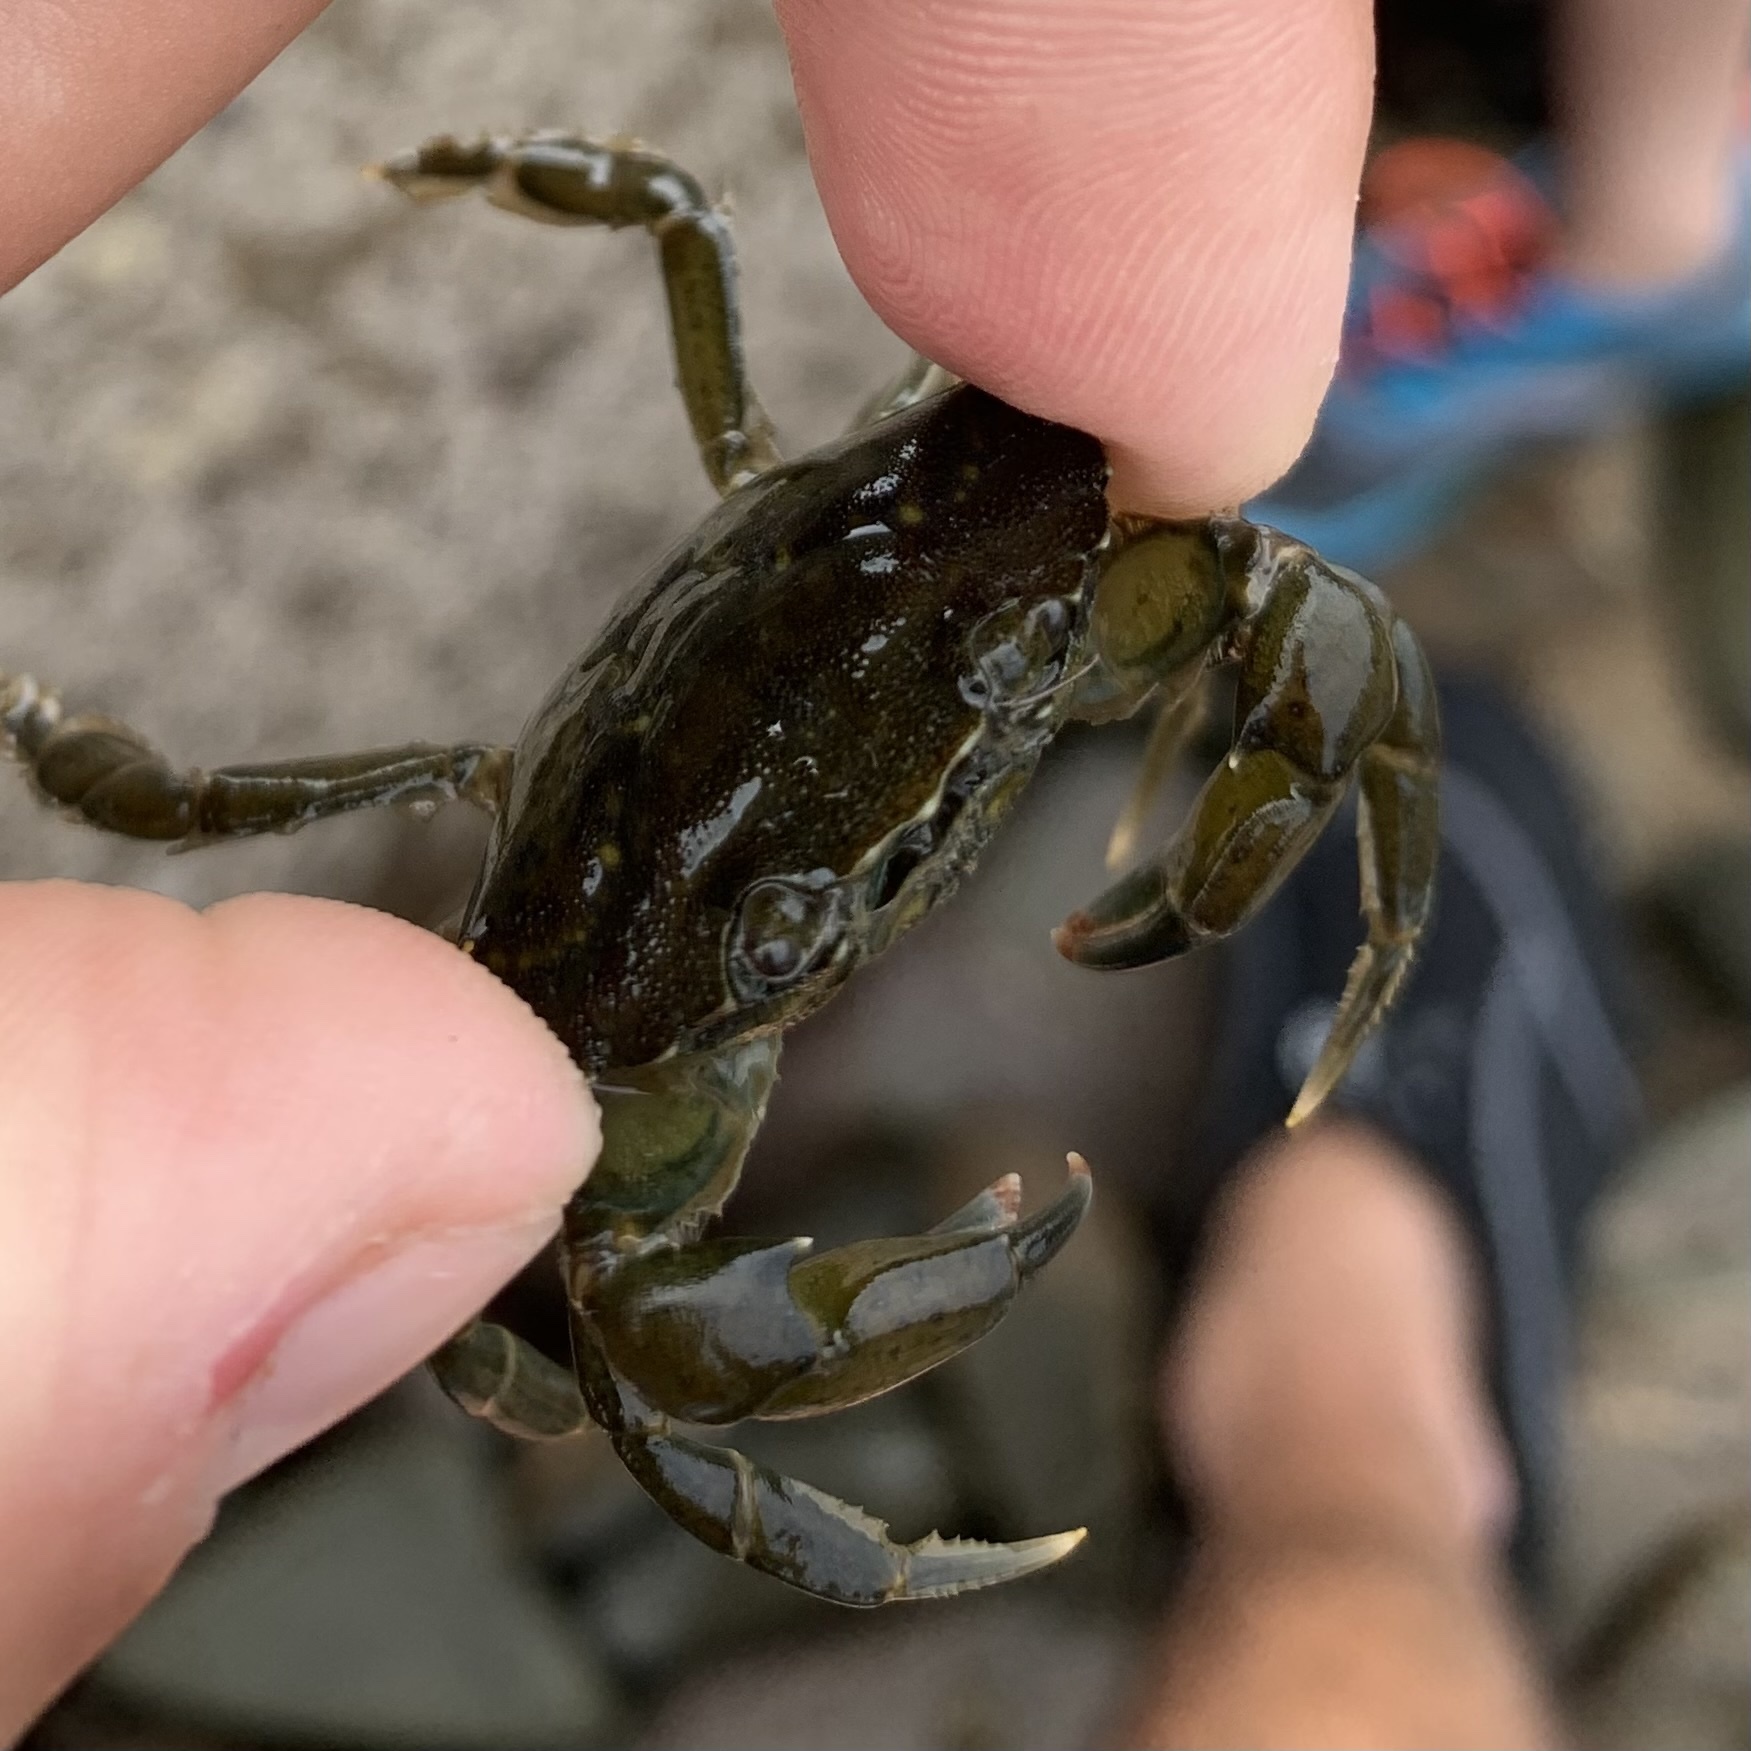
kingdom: Animalia
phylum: Arthropoda
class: Malacostraca
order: Decapoda
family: Carcinidae
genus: Carcinus
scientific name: Carcinus maenas
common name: European green crab
